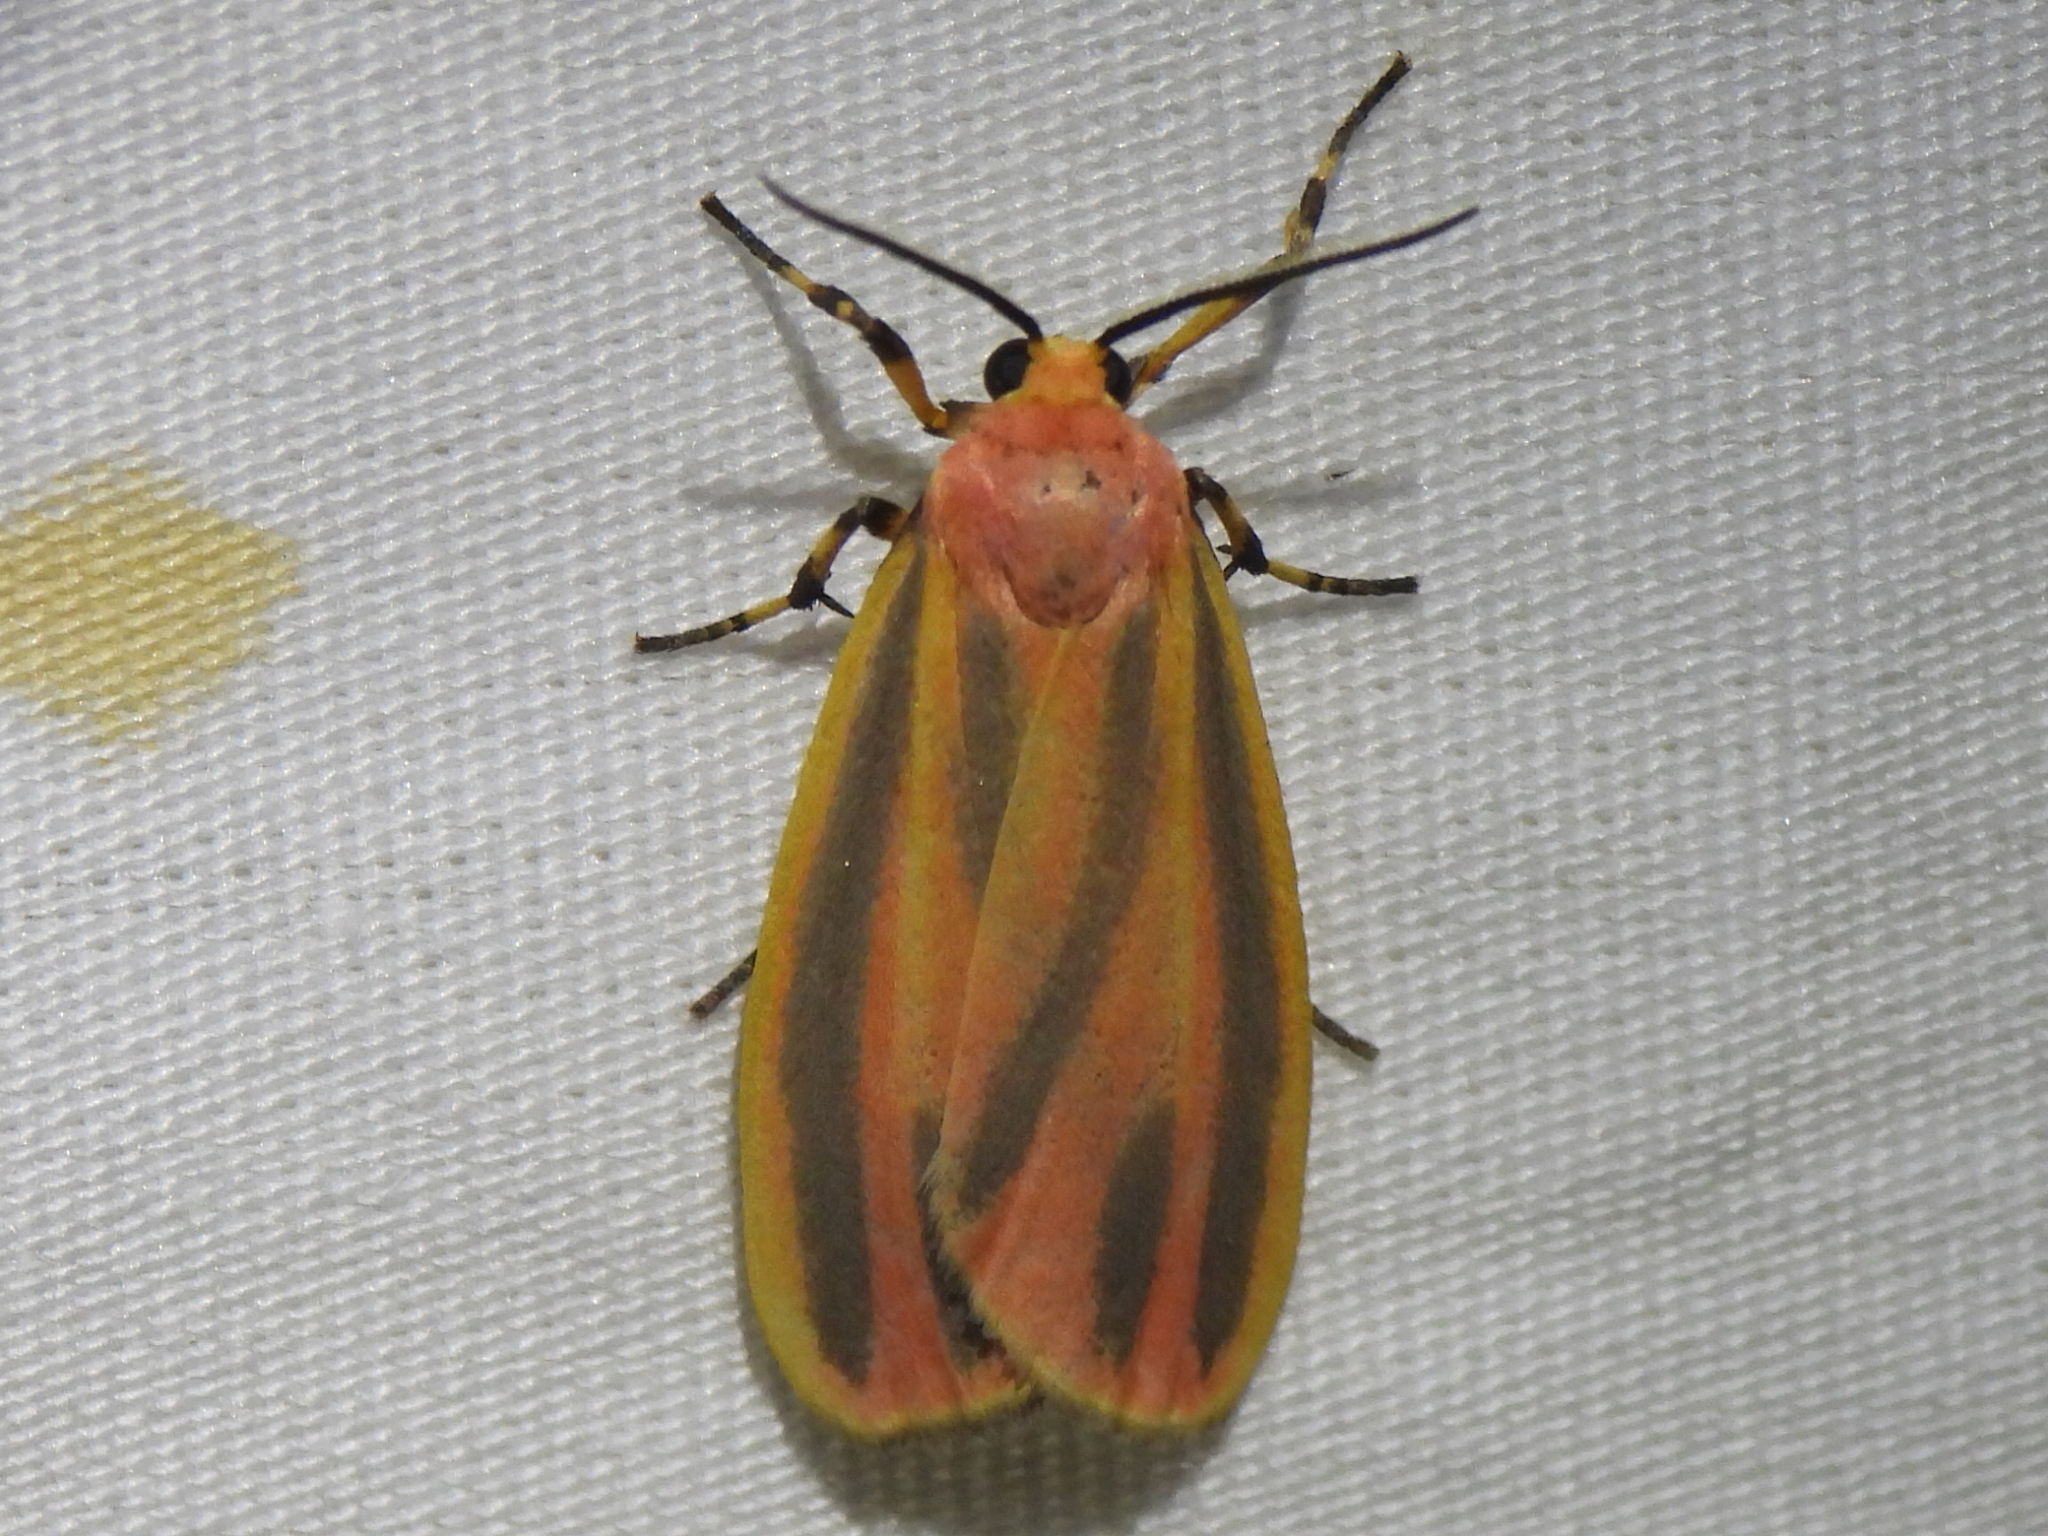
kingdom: Animalia
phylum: Arthropoda
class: Insecta
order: Lepidoptera
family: Erebidae
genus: Hypoprepia
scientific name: Hypoprepia fucosa
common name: Painted lichen moth
